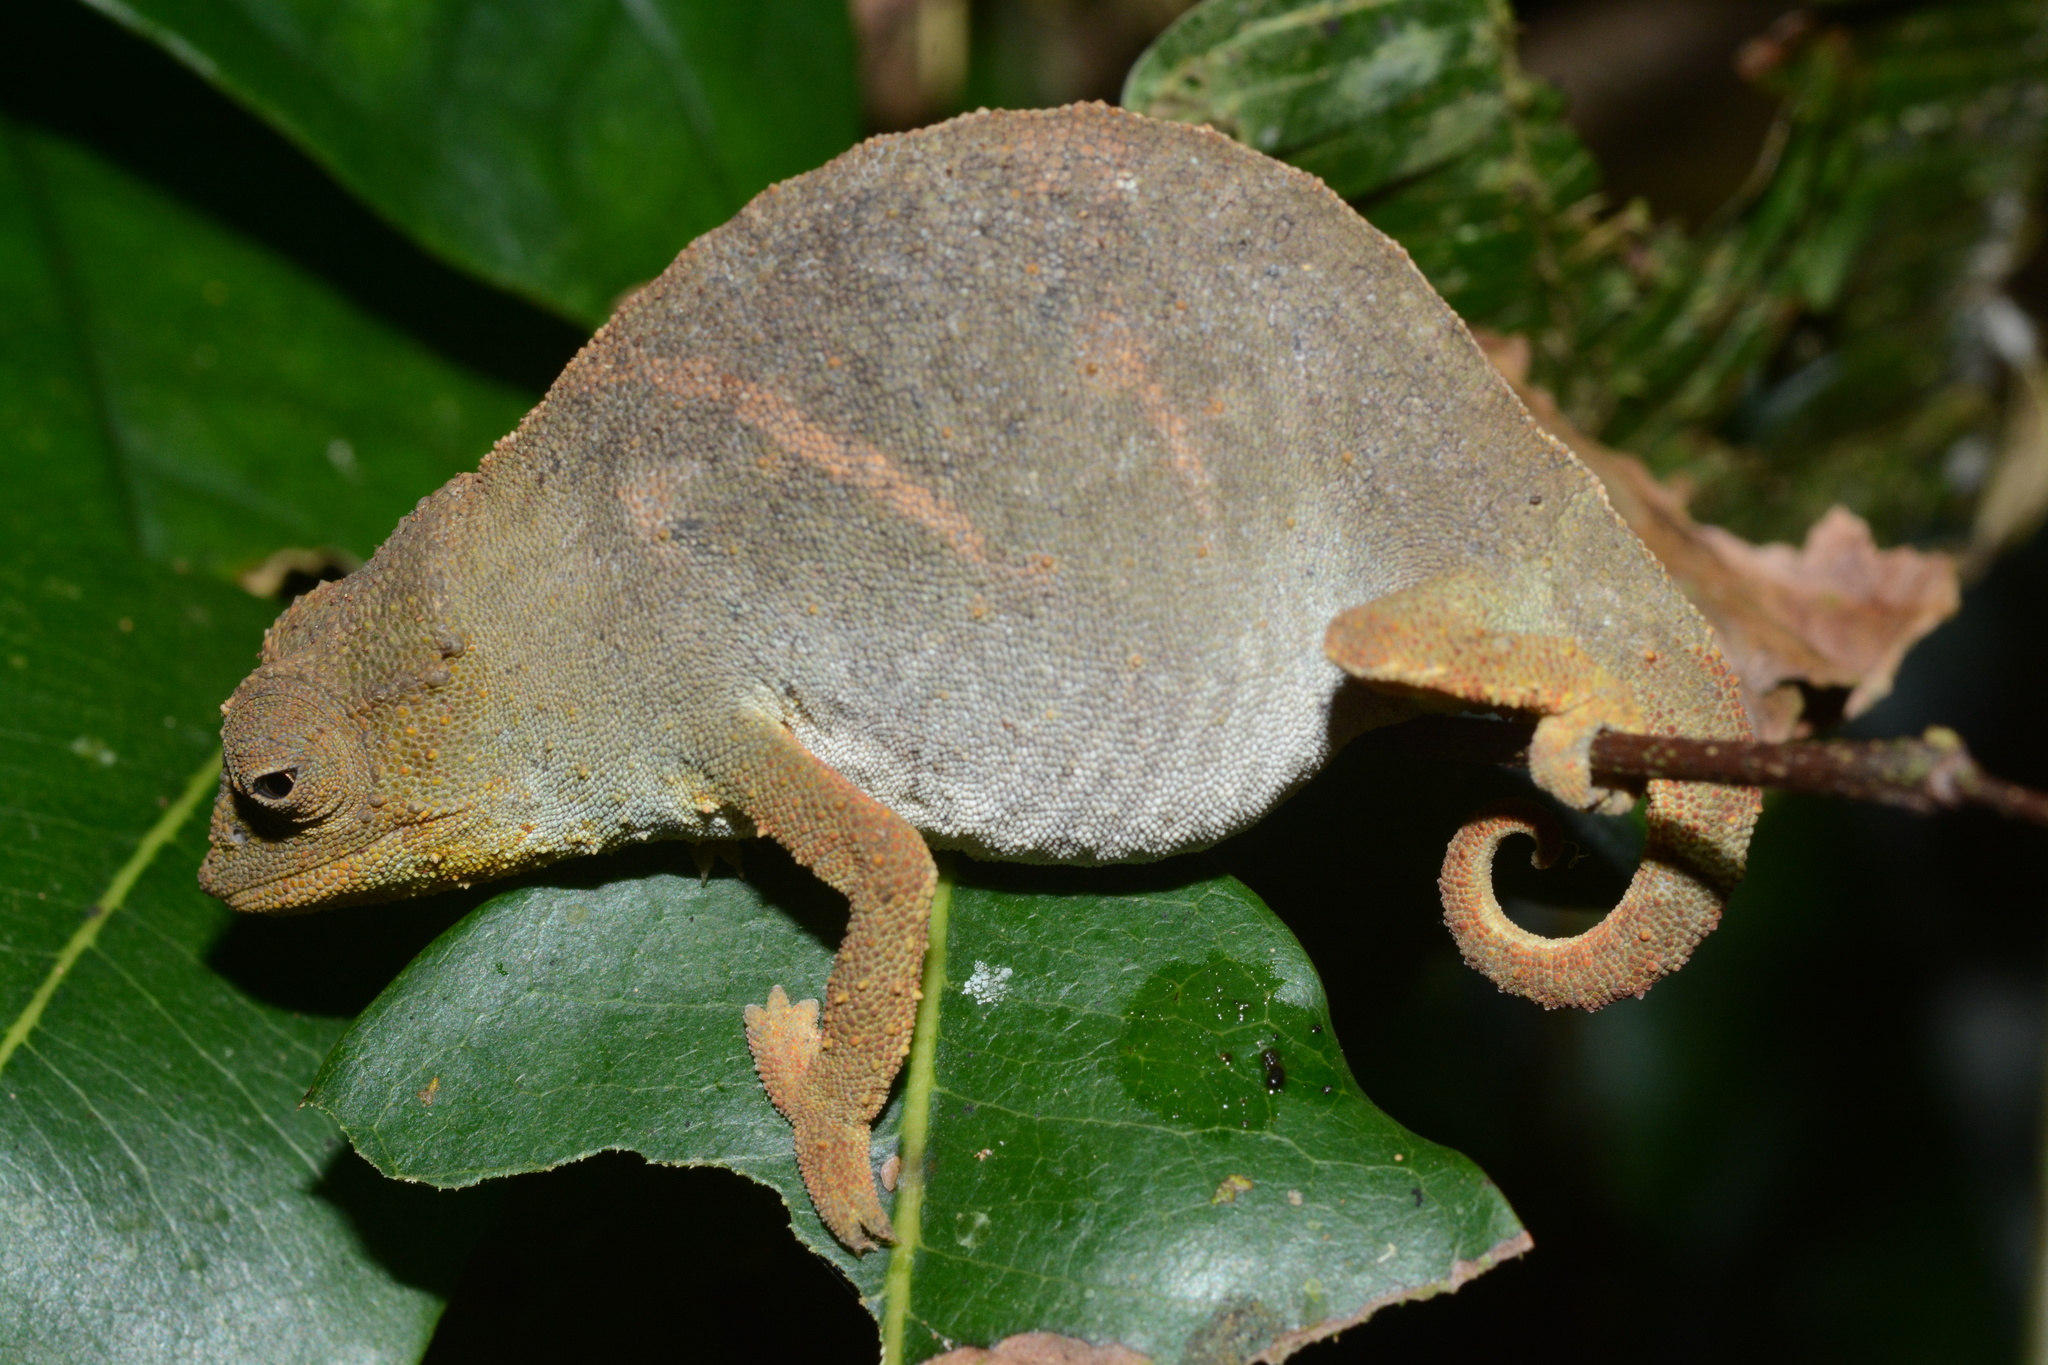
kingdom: Animalia
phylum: Chordata
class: Squamata
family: Chamaeleonidae
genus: Rhampholeon
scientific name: Rhampholeon viridis
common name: Green pygmy chameleon
